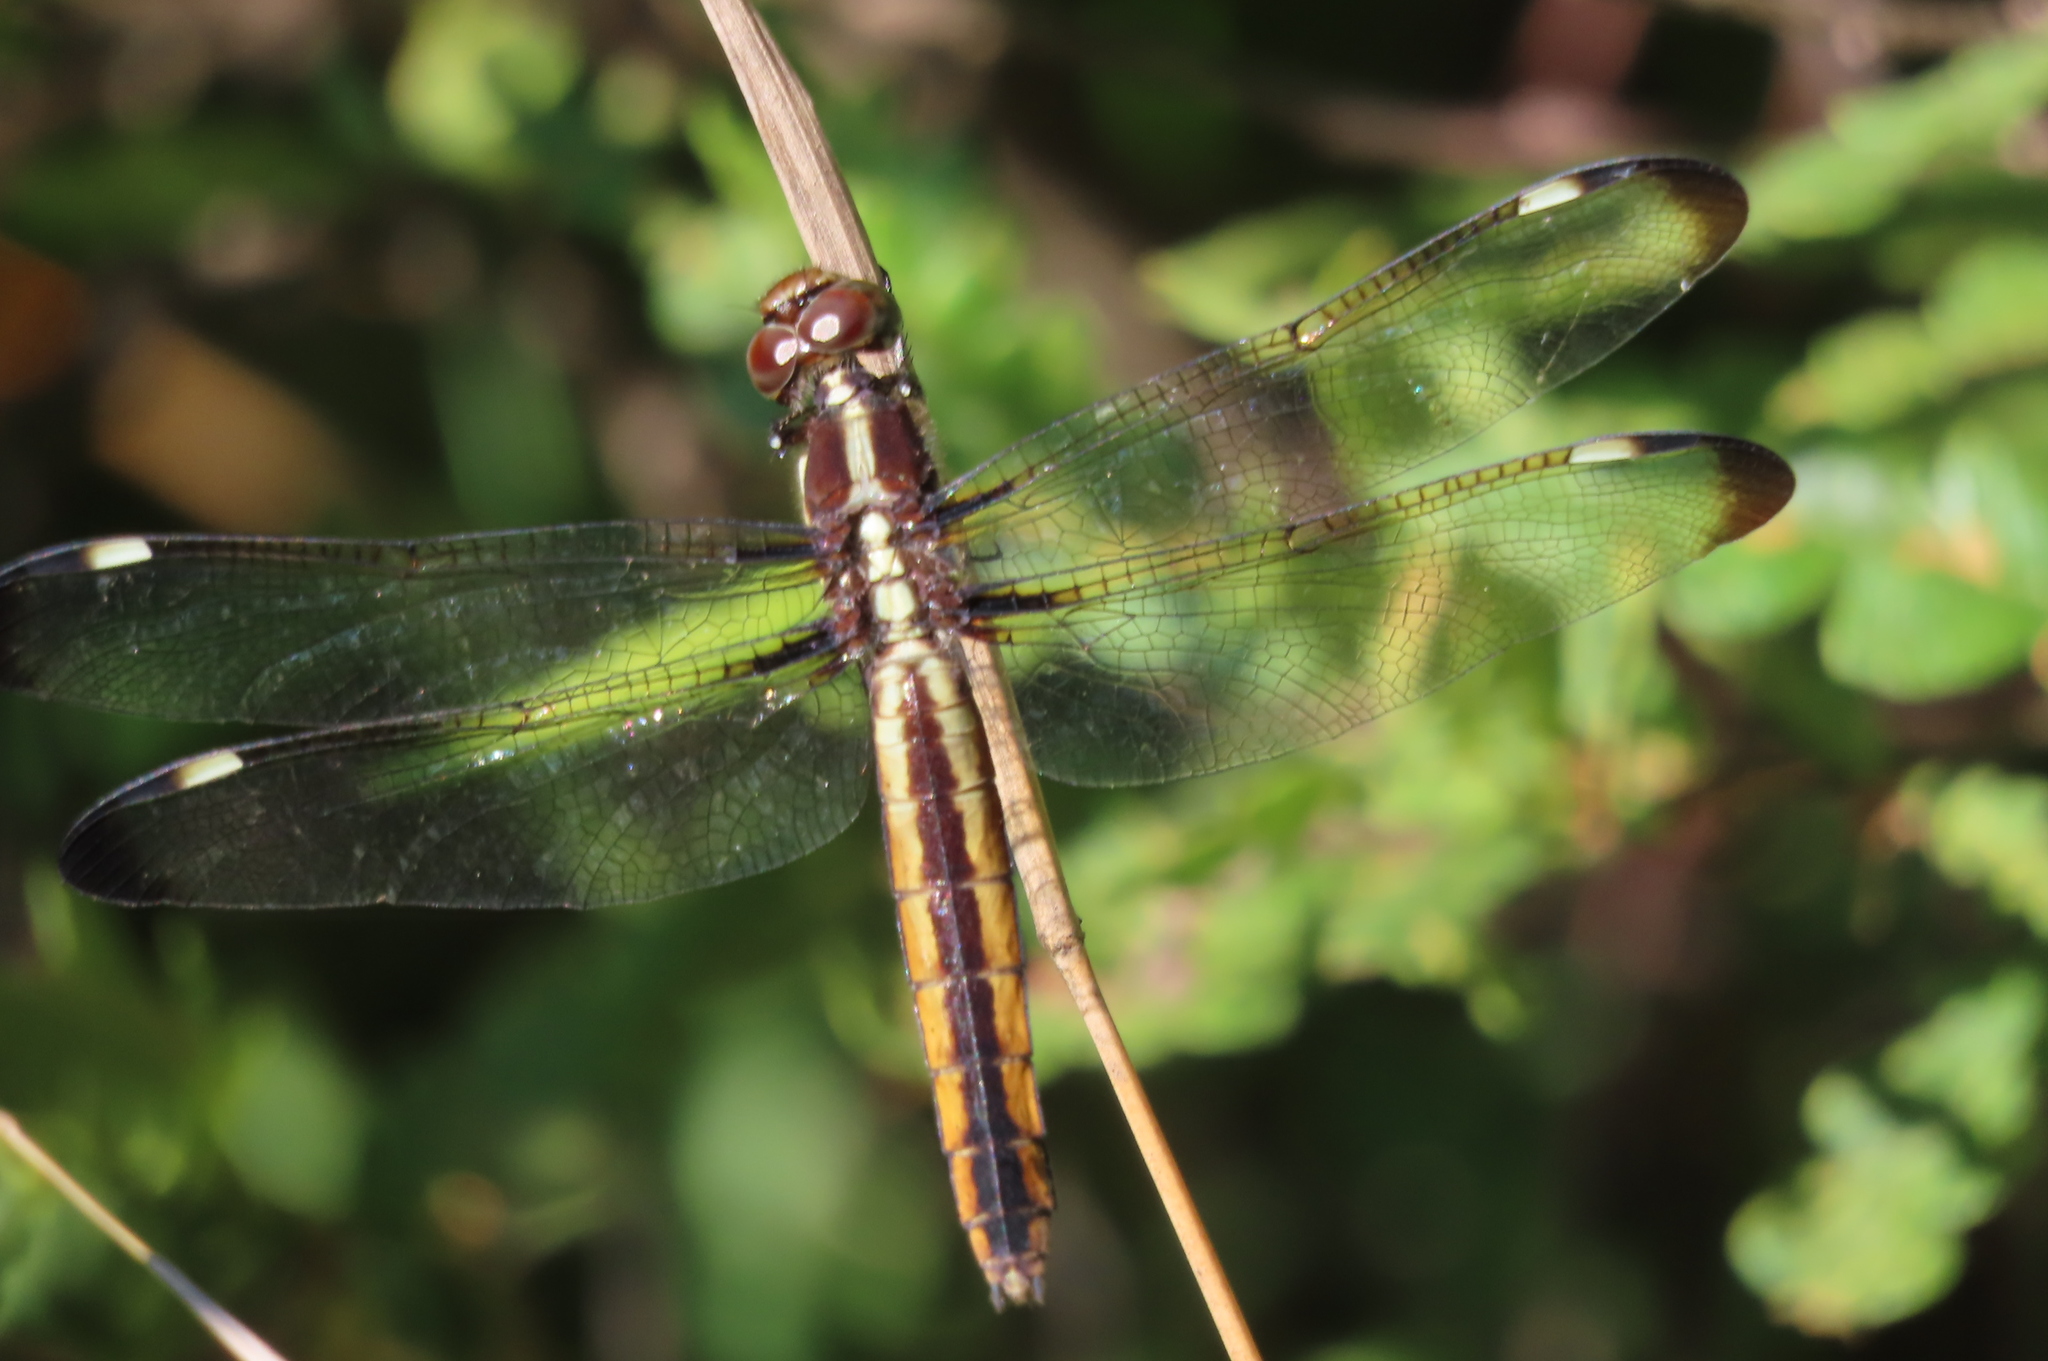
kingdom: Animalia
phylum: Arthropoda
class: Insecta
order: Odonata
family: Libellulidae
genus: Libellula
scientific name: Libellula cyanea
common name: Spangled skimmer
